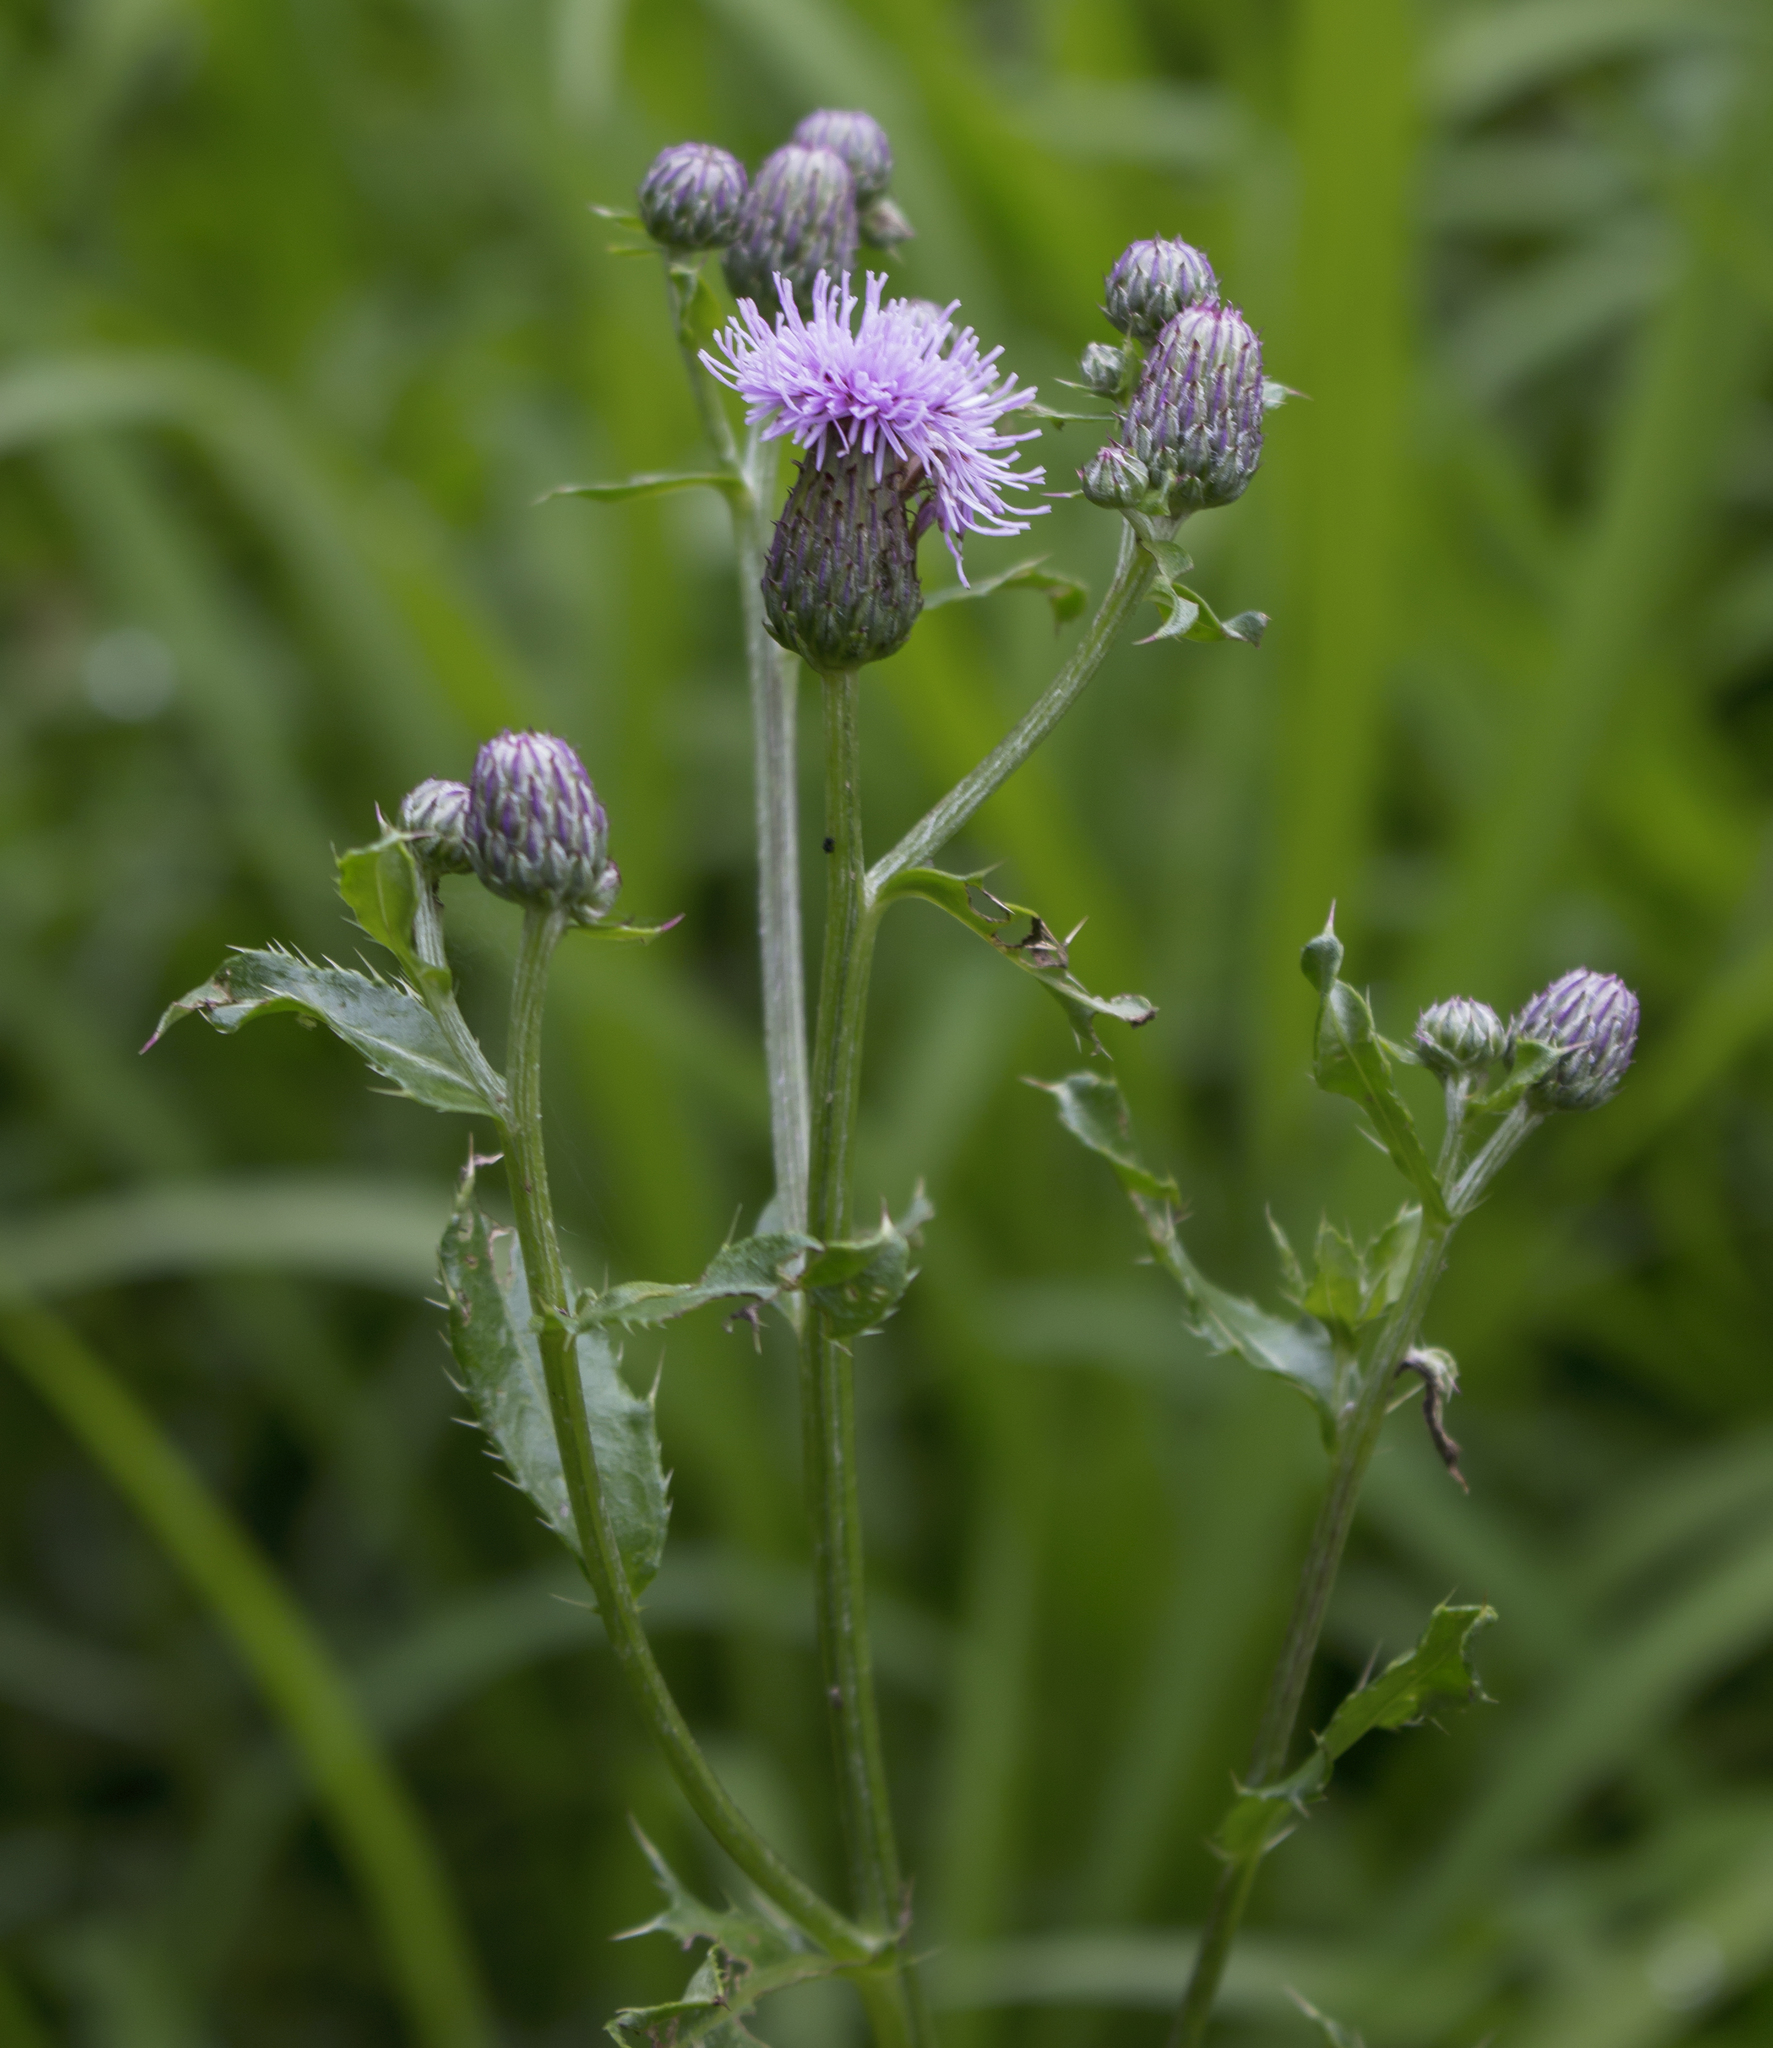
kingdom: Plantae
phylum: Tracheophyta
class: Magnoliopsida
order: Asterales
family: Asteraceae
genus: Cirsium
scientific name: Cirsium arvense
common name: Creeping thistle
